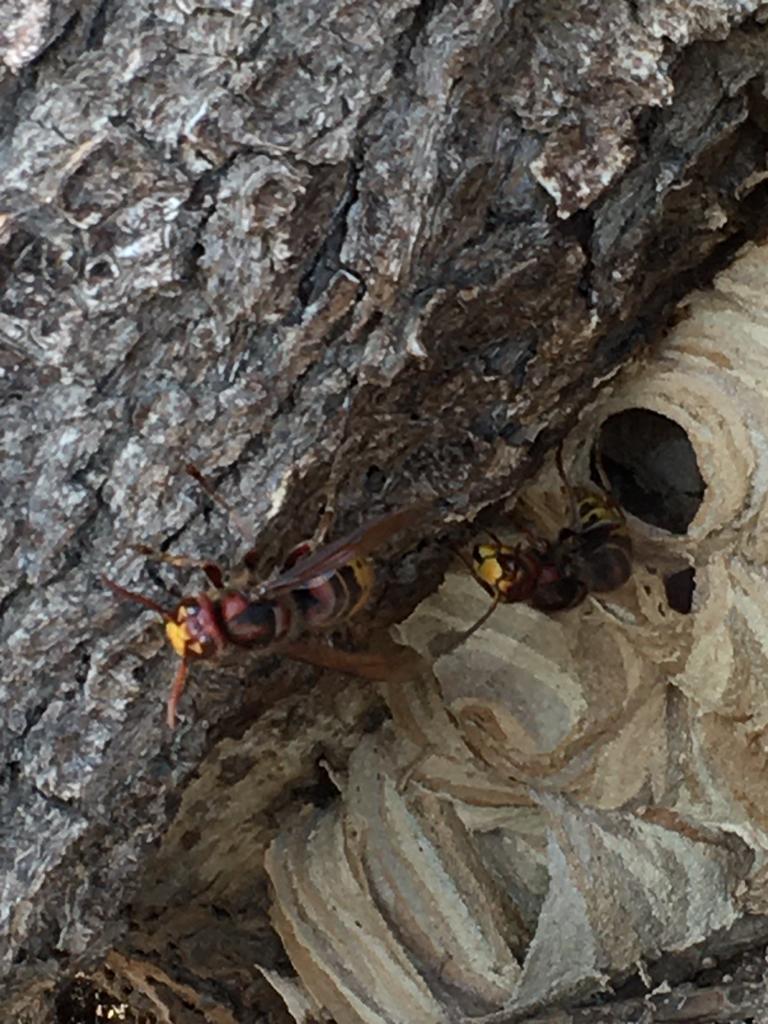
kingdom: Animalia
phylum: Arthropoda
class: Insecta
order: Hymenoptera
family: Vespidae
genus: Vespa
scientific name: Vespa crabro
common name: Hornet
